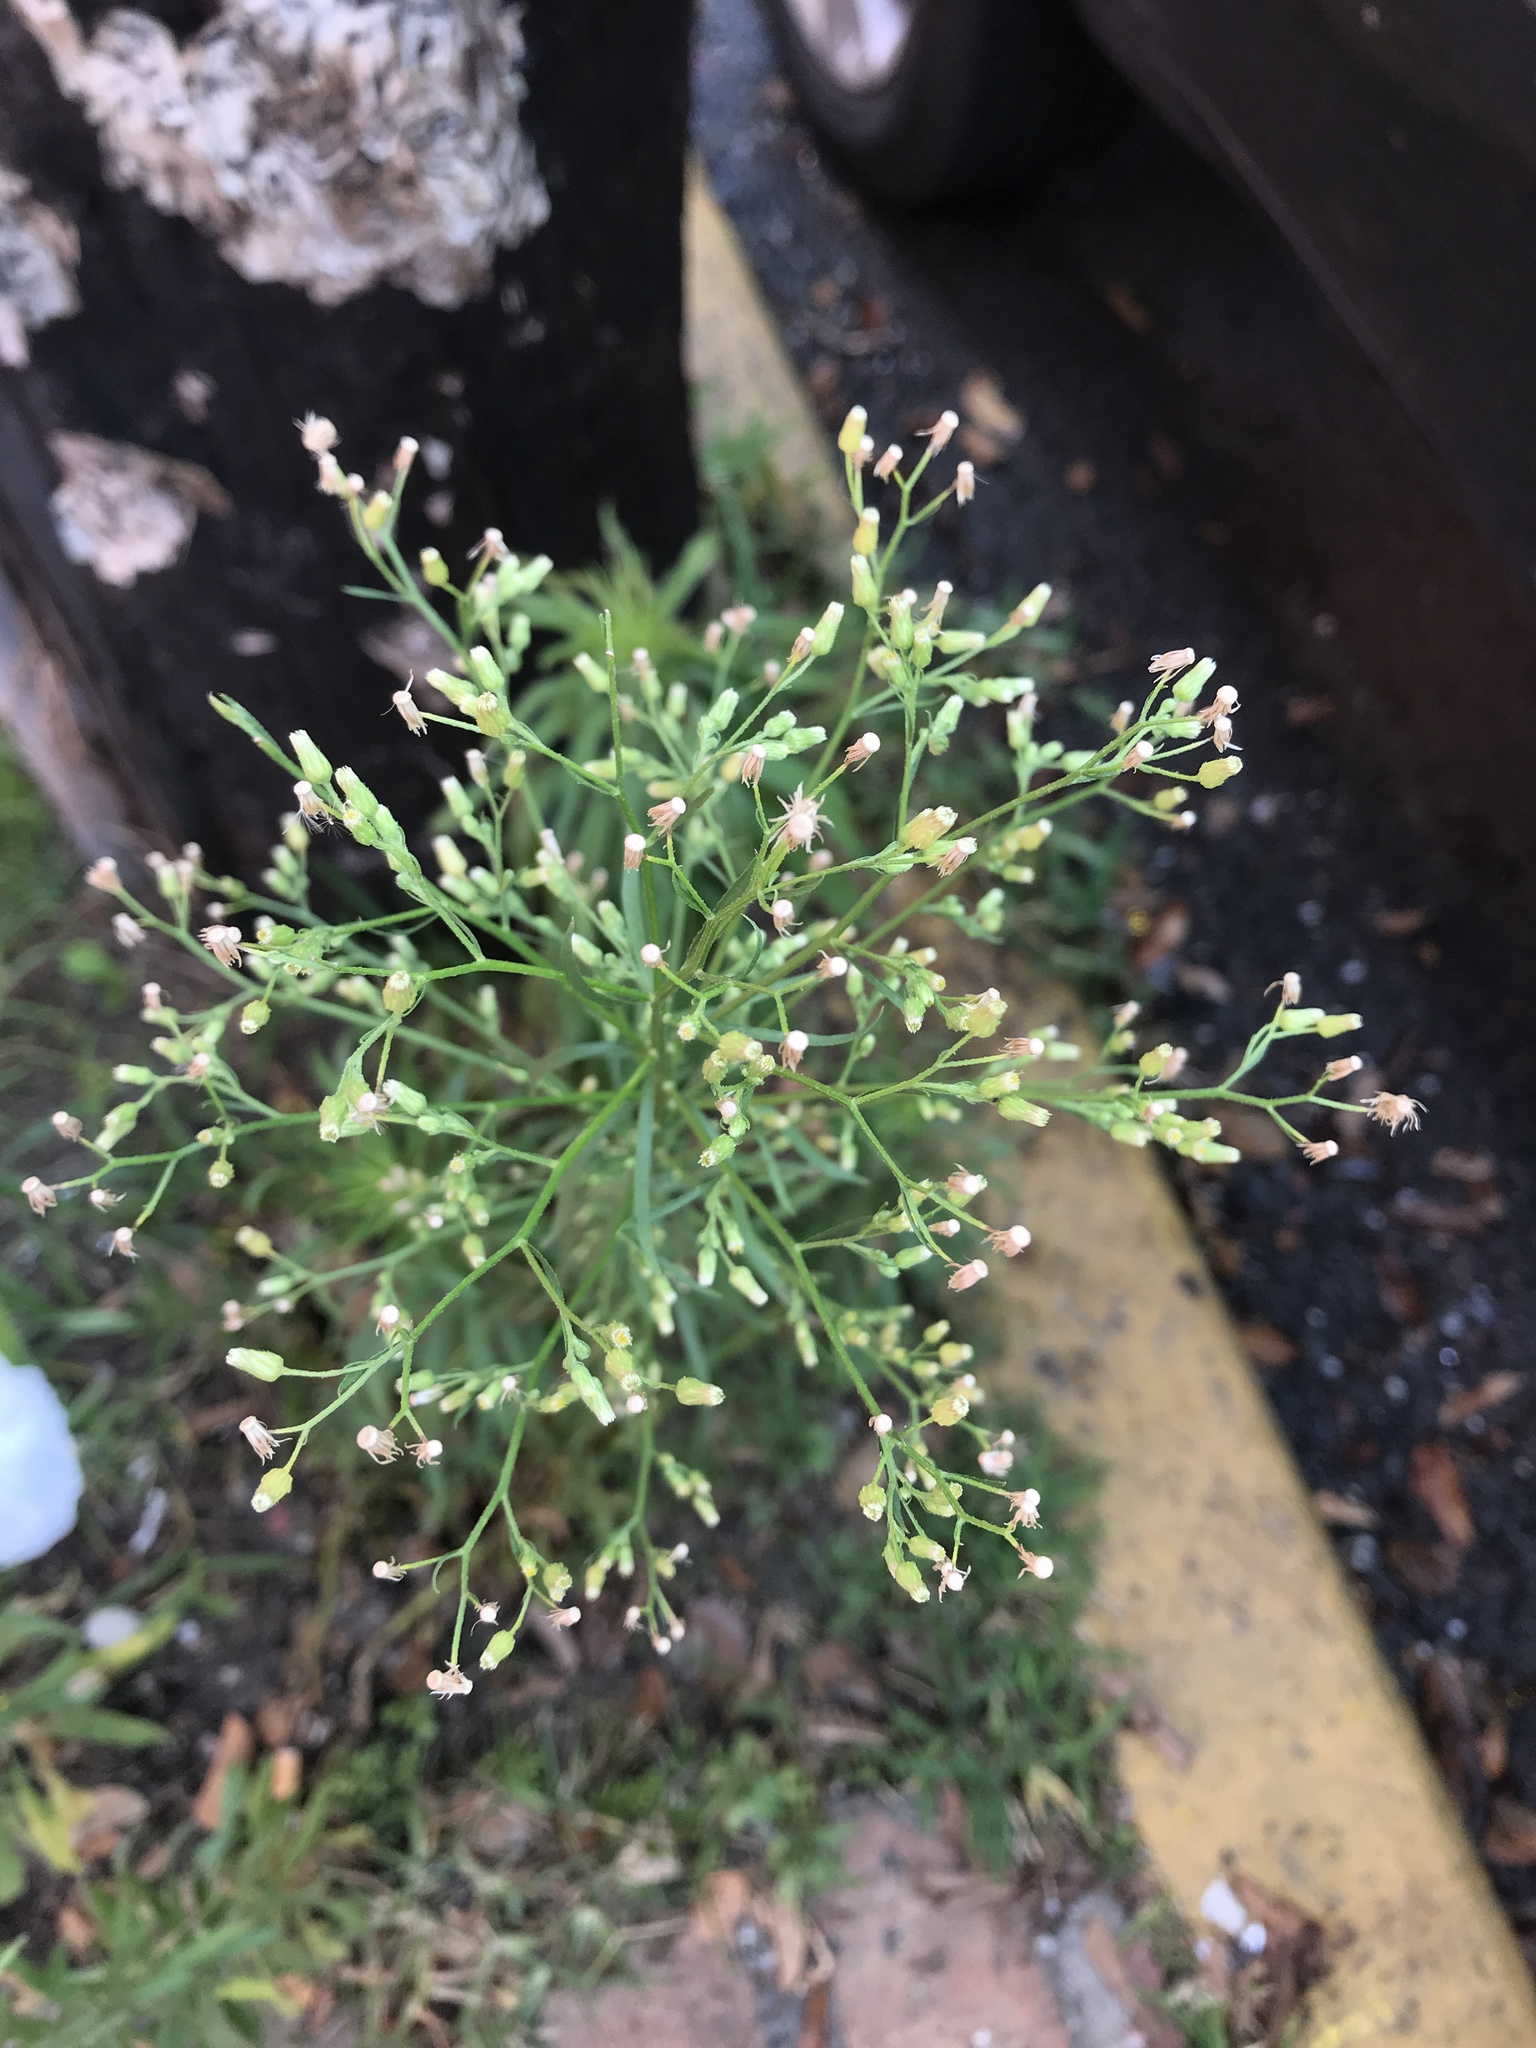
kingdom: Plantae
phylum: Tracheophyta
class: Magnoliopsida
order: Asterales
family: Asteraceae
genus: Erigeron
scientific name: Erigeron canadensis
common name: Canadian fleabane
